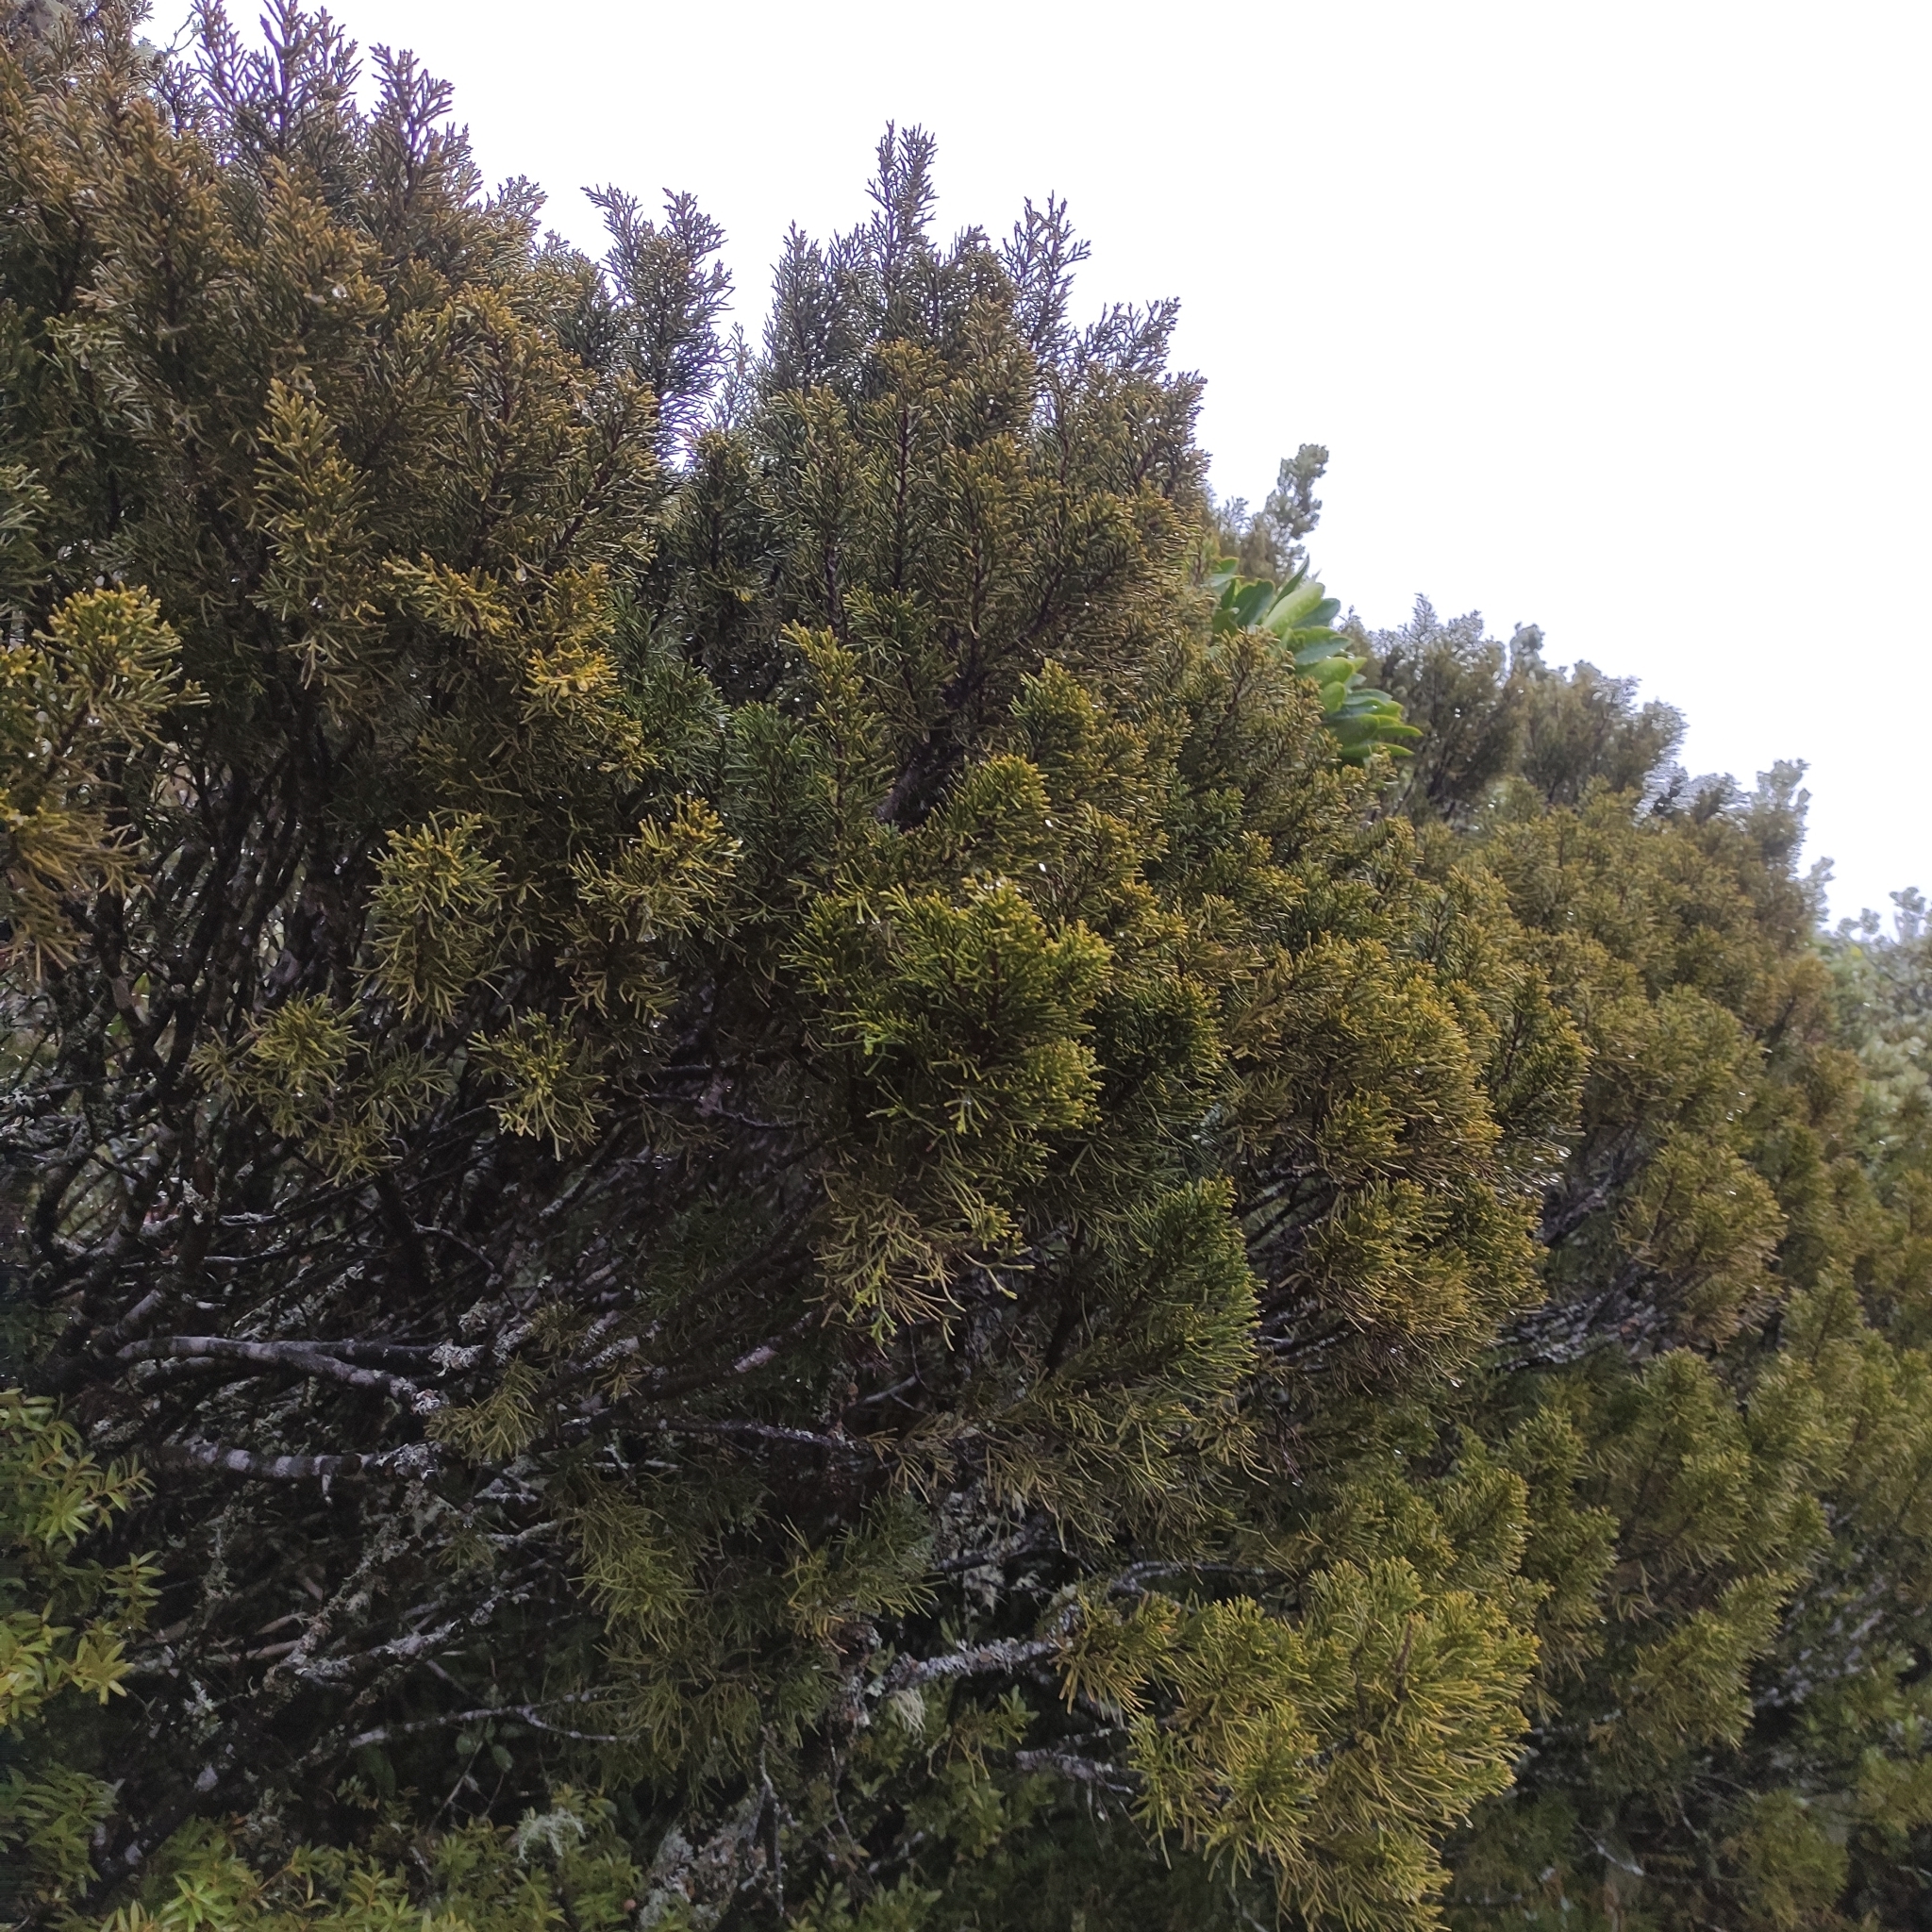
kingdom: Plantae
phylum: Tracheophyta
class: Pinopsida
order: Pinales
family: Podocarpaceae
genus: Halocarpus
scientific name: Halocarpus bidwillii
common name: Bog pine
